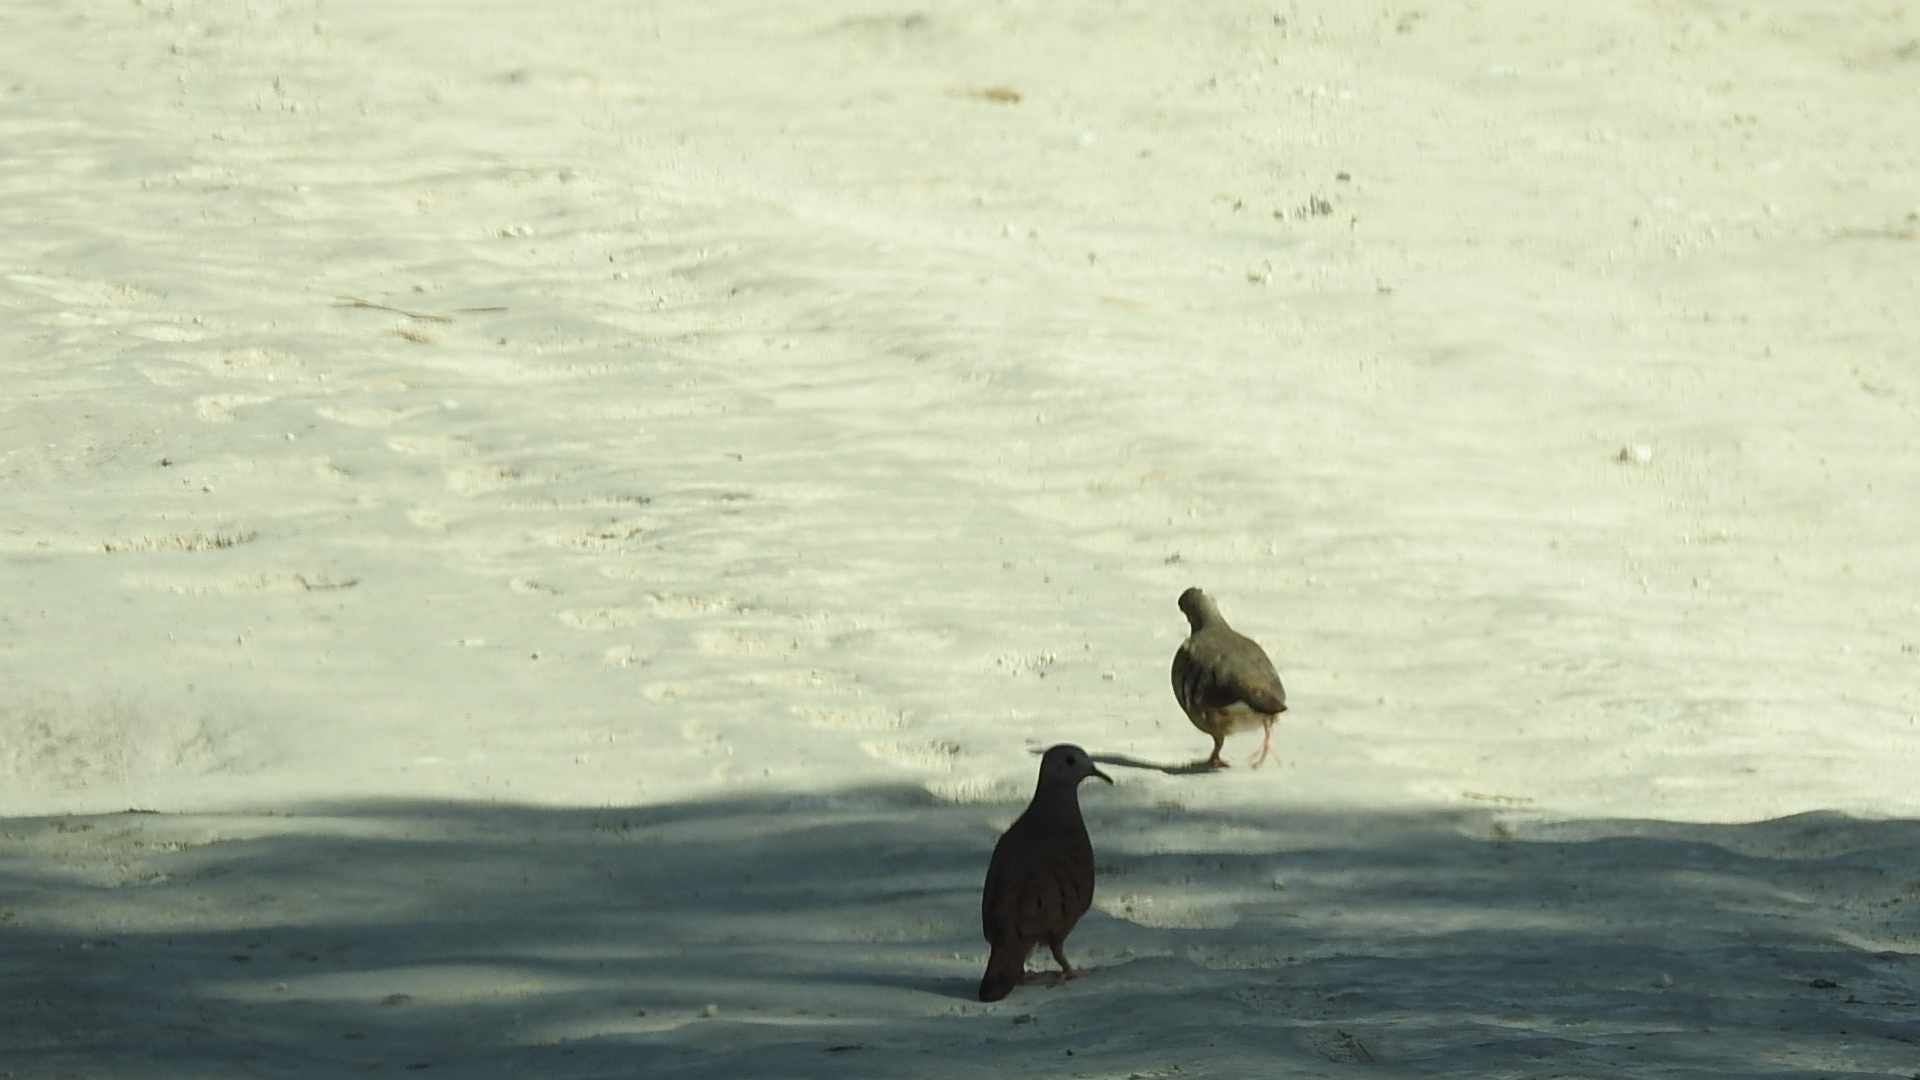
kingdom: Animalia
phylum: Chordata
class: Aves
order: Columbiformes
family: Columbidae
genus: Columbina
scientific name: Columbina talpacoti
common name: Ruddy ground dove
